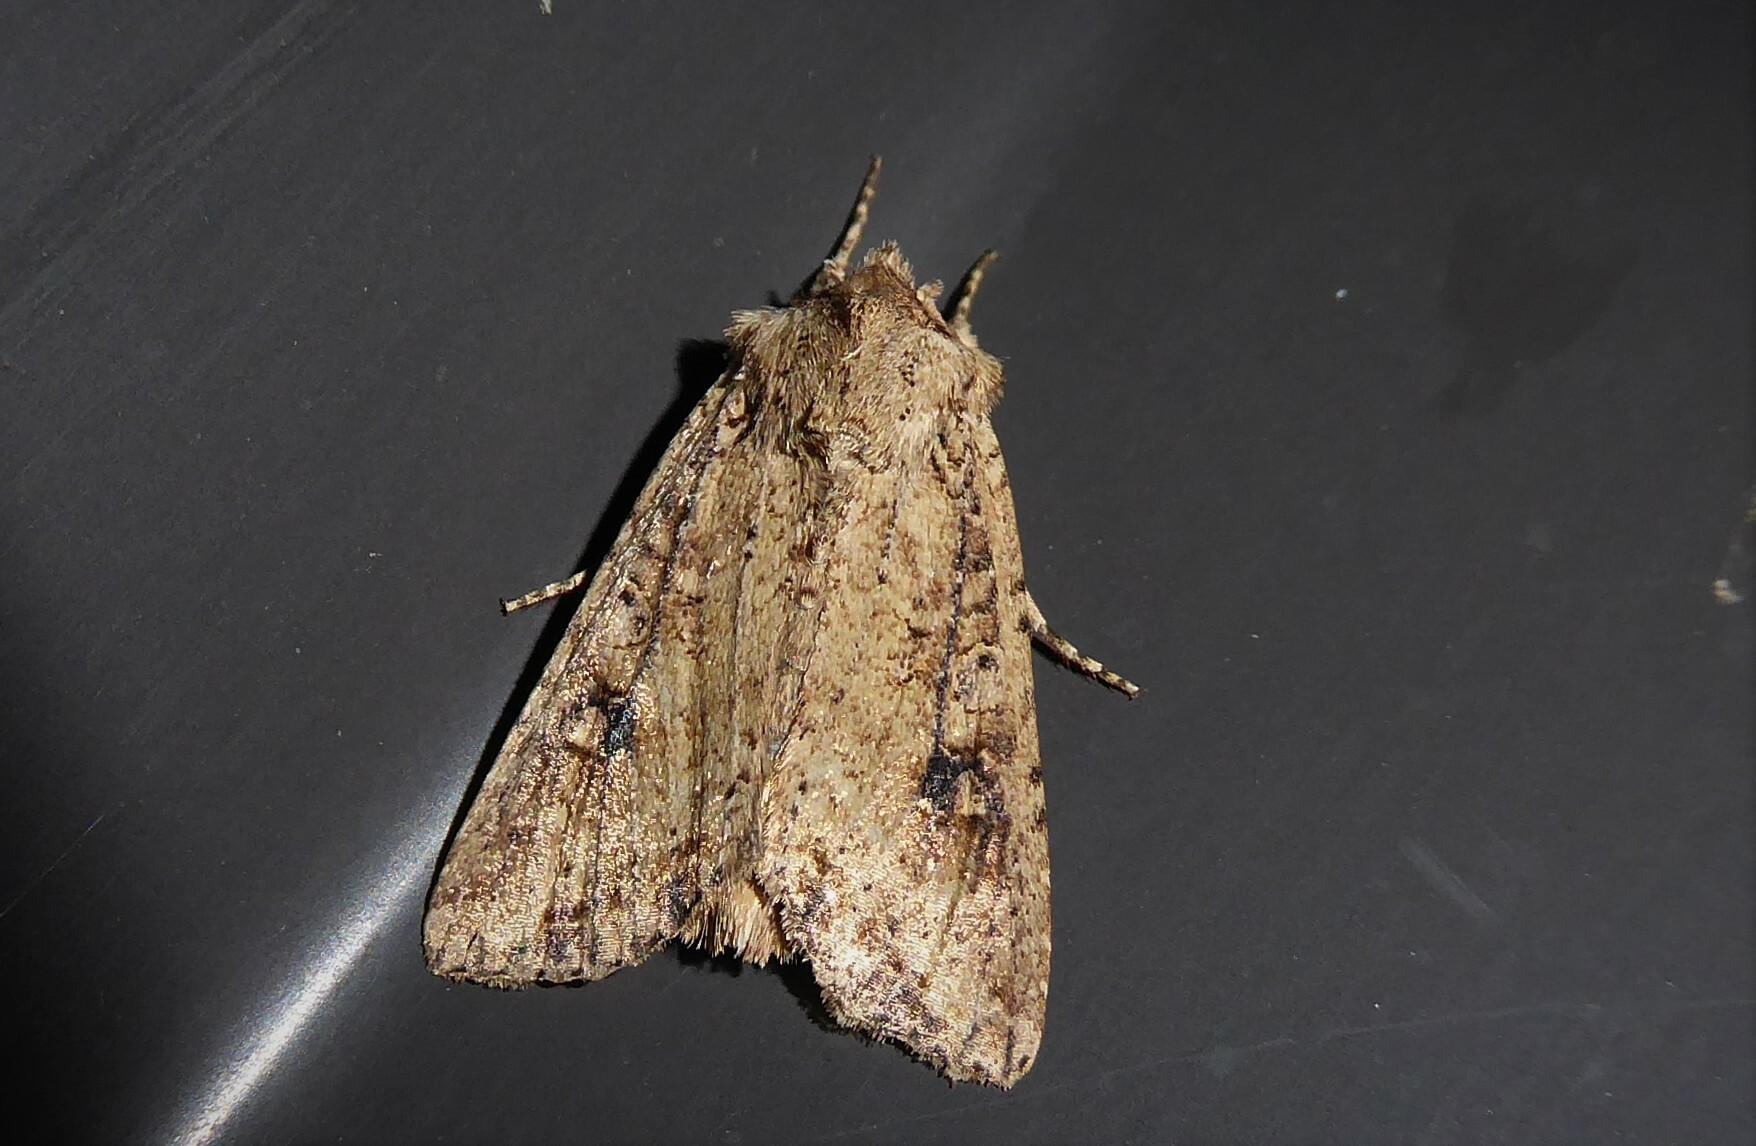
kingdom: Animalia
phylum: Arthropoda
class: Insecta
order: Lepidoptera
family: Noctuidae
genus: Ichneutica
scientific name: Ichneutica lignana
